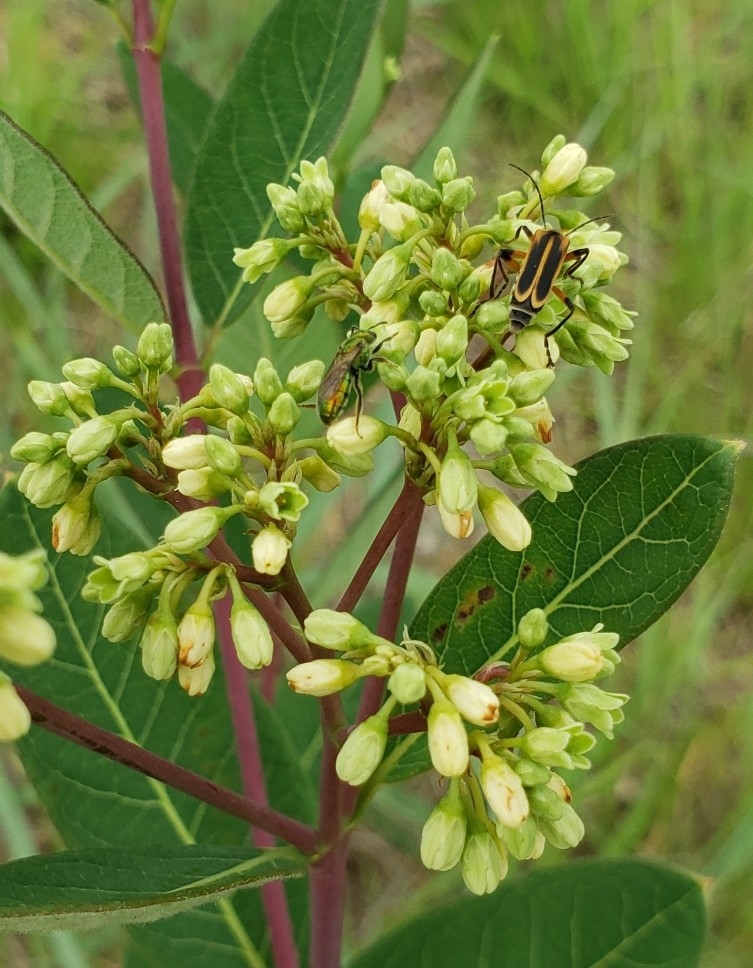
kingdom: Animalia
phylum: Arthropoda
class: Insecta
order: Coleoptera
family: Cantharidae
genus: Chauliognathus
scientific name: Chauliognathus marginatus
